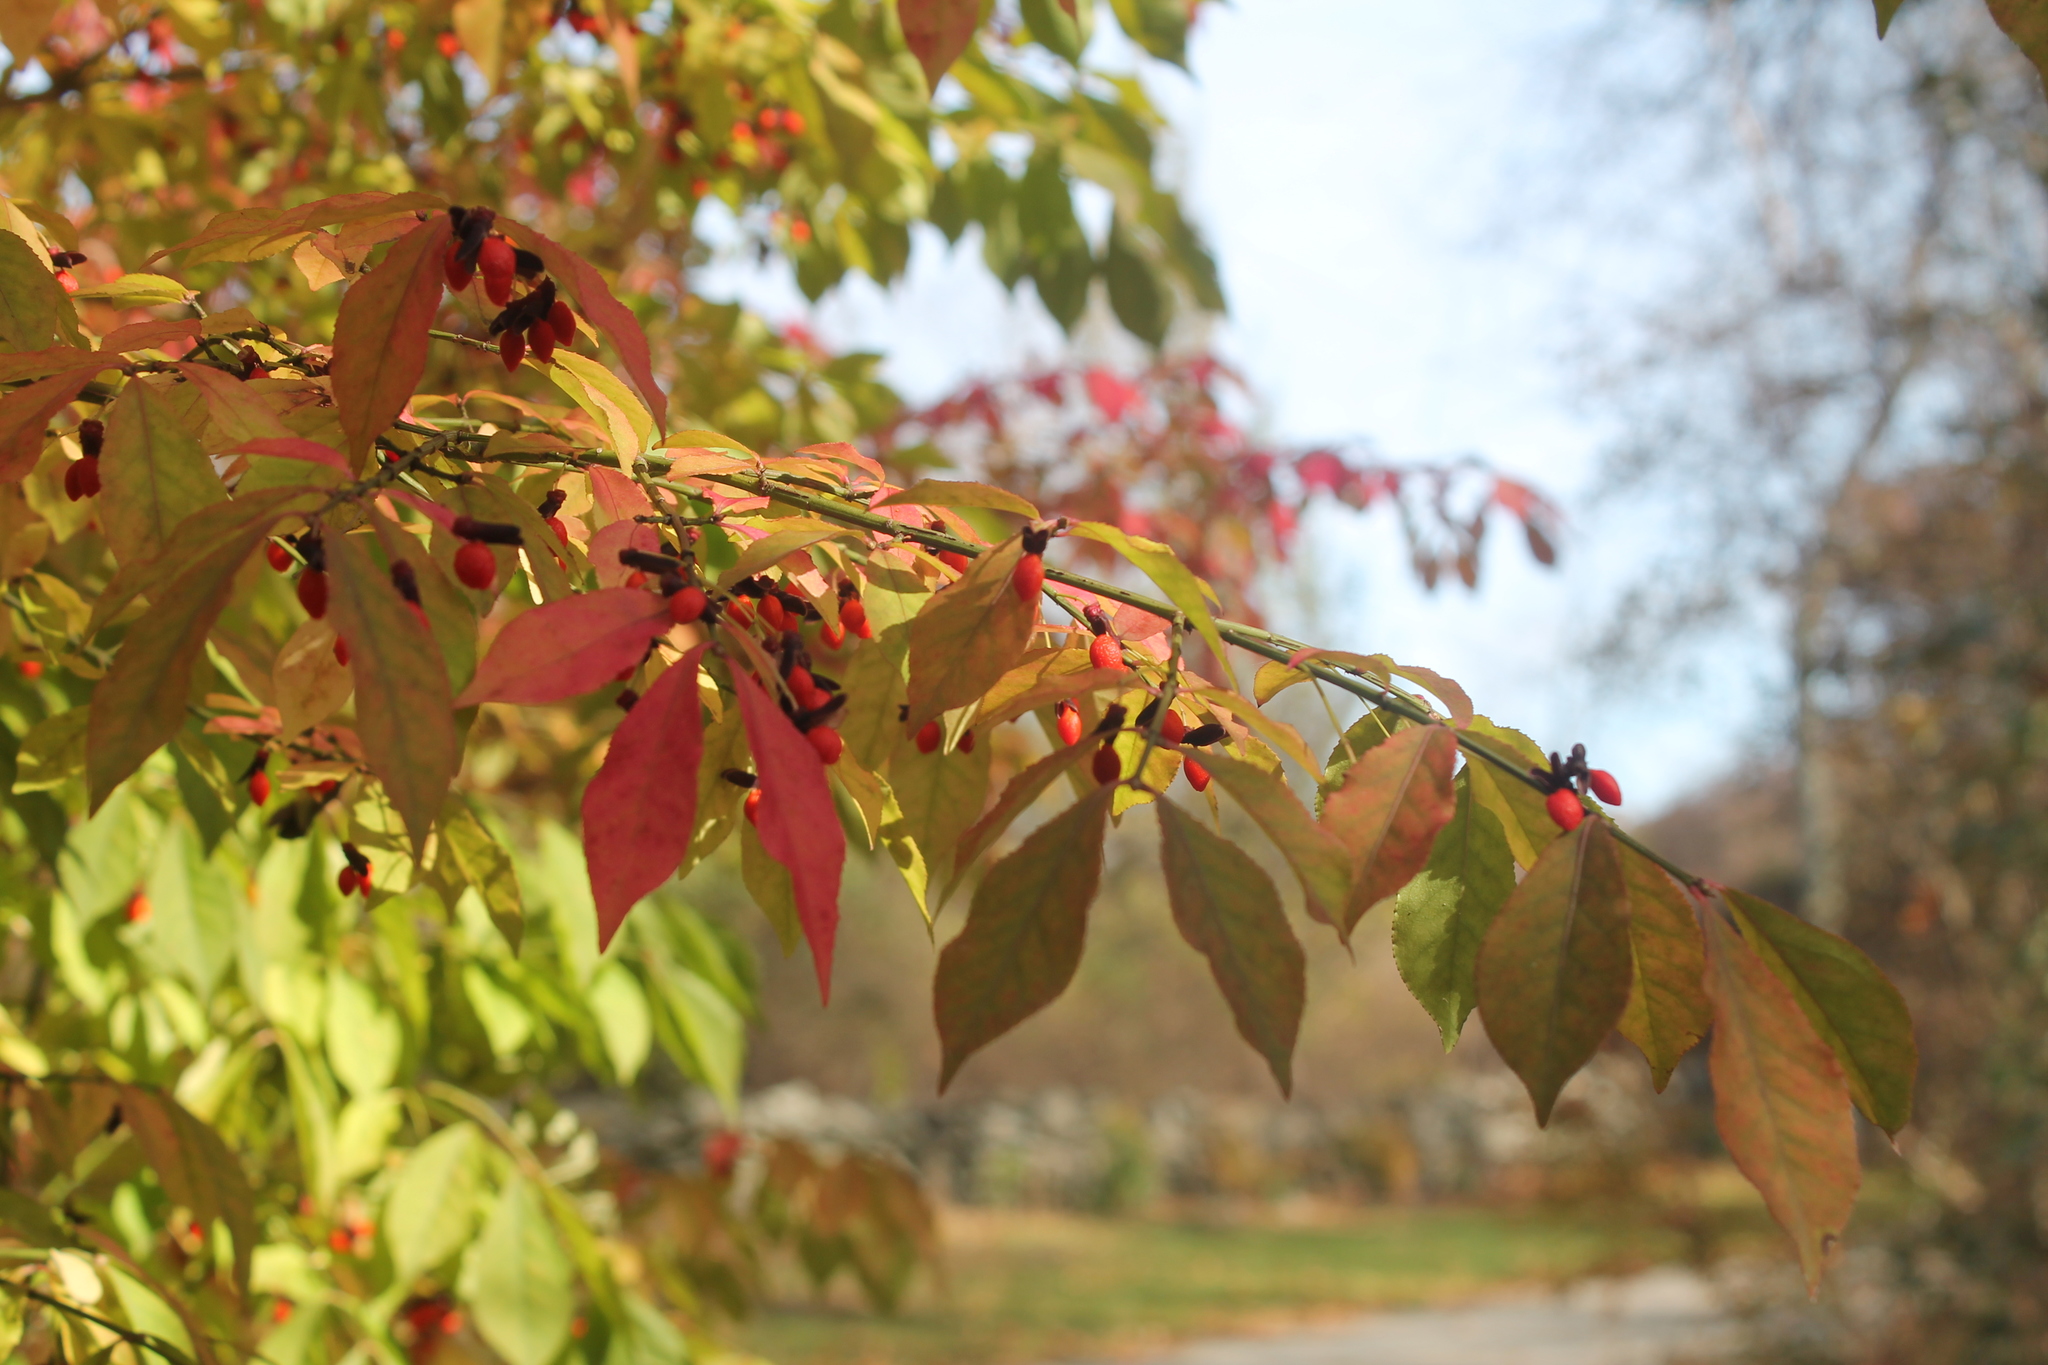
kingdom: Plantae
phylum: Tracheophyta
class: Magnoliopsida
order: Celastrales
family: Celastraceae
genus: Euonymus
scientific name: Euonymus alatus
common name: Winged euonymus
